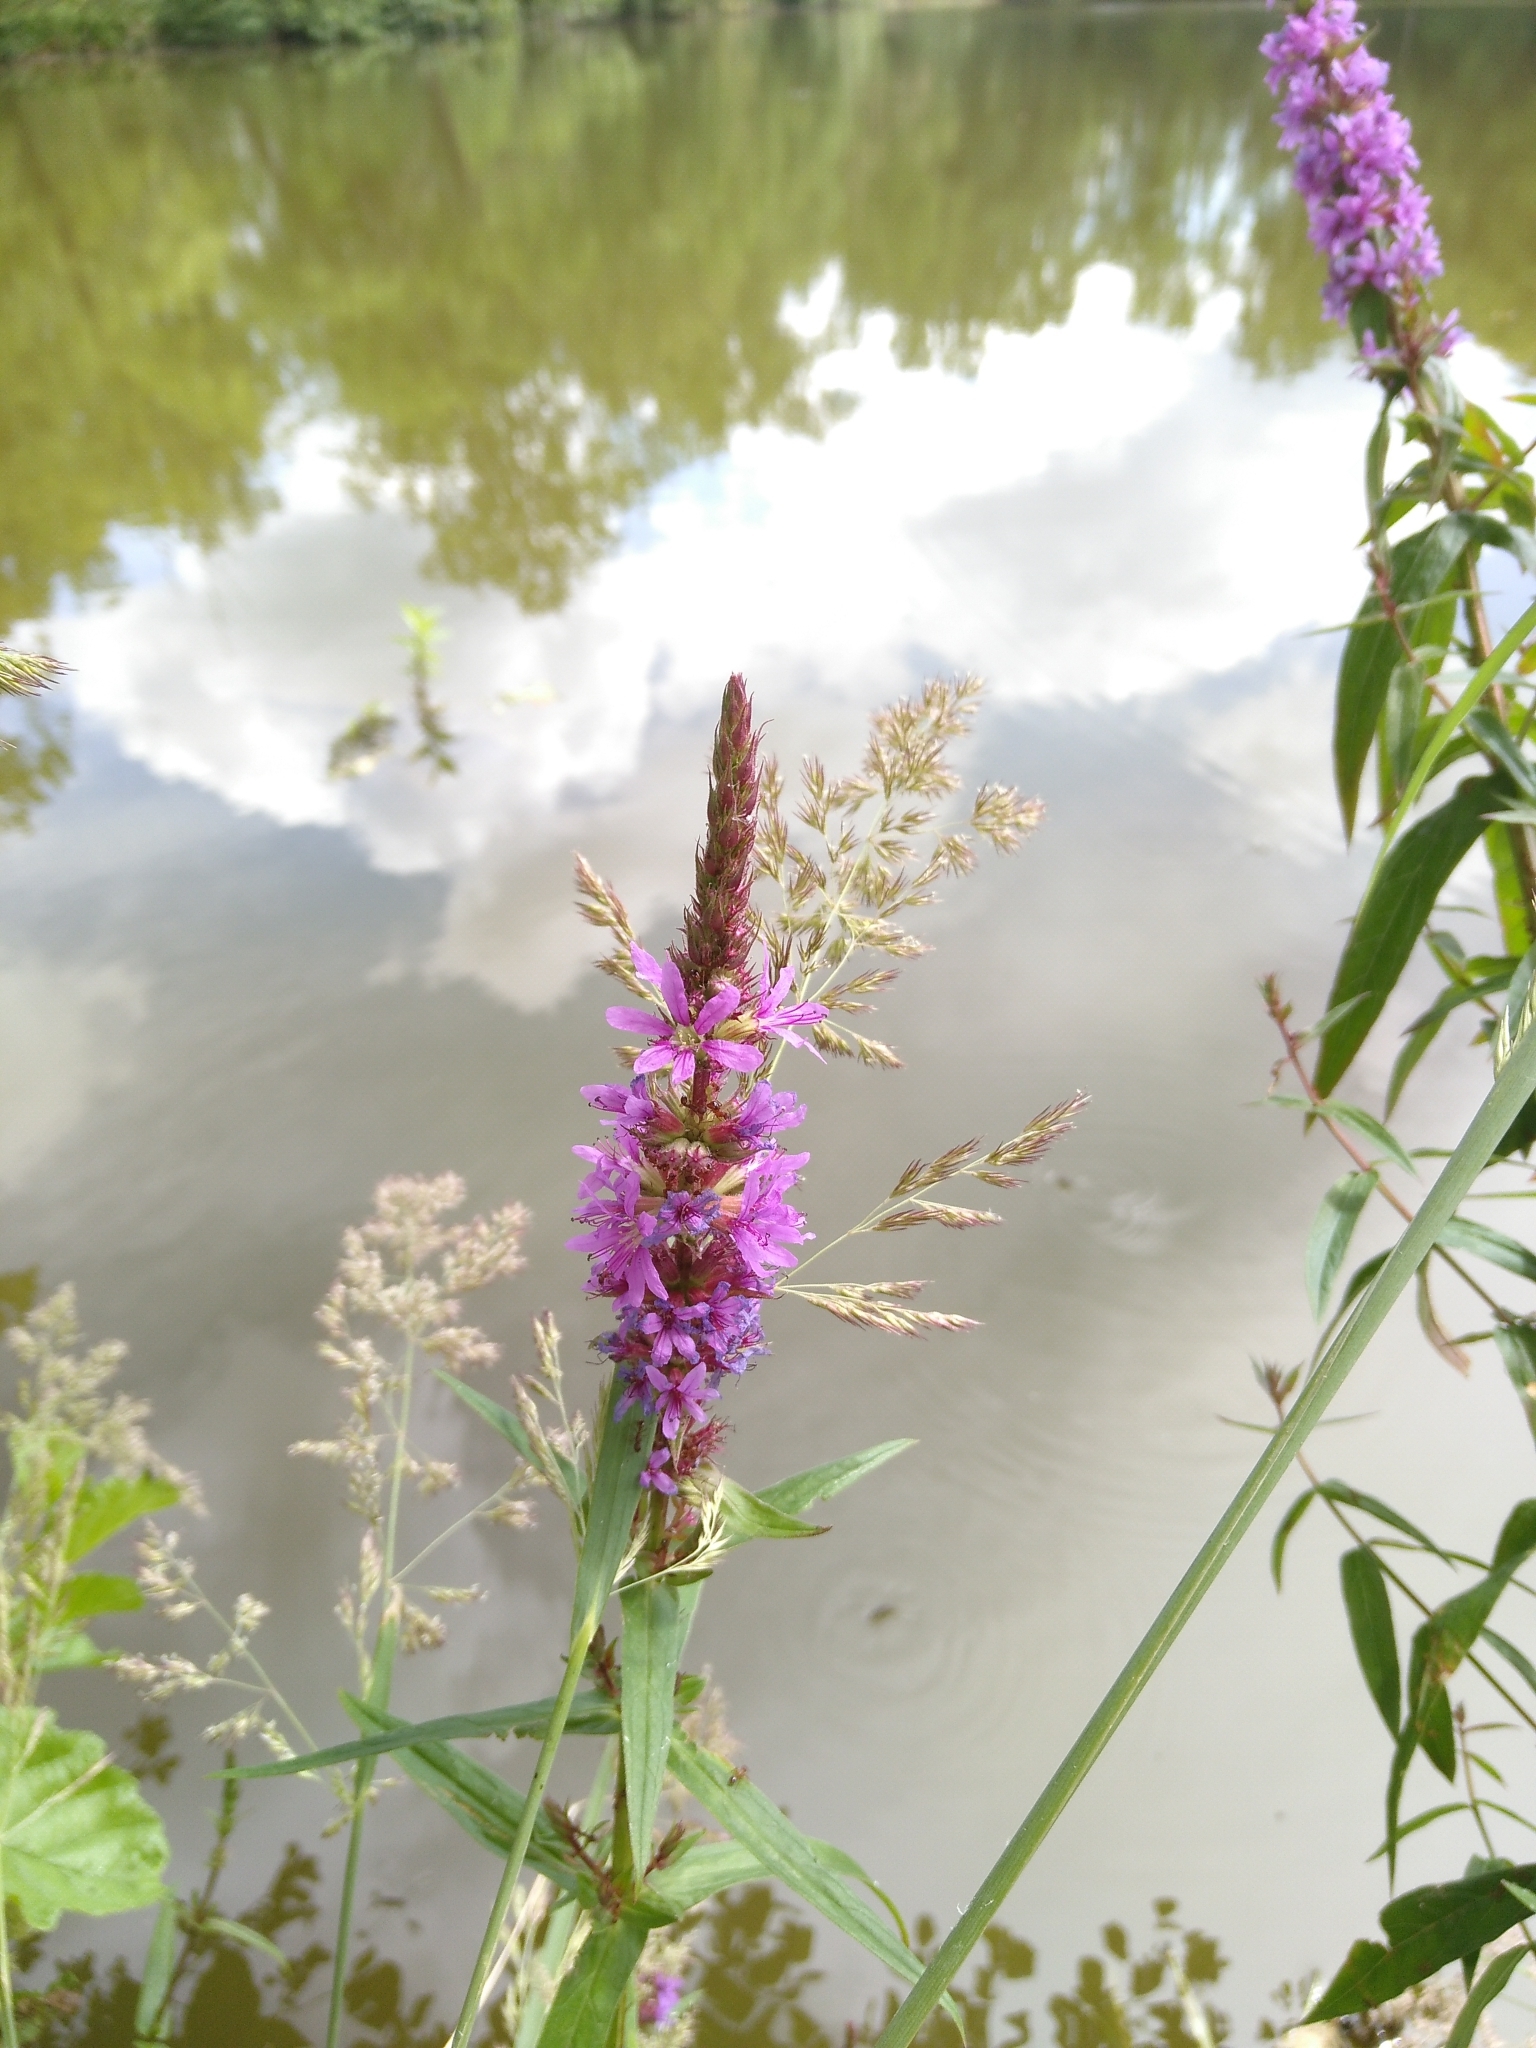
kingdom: Plantae
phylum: Tracheophyta
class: Magnoliopsida
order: Myrtales
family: Lythraceae
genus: Lythrum
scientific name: Lythrum salicaria
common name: Purple loosestrife
